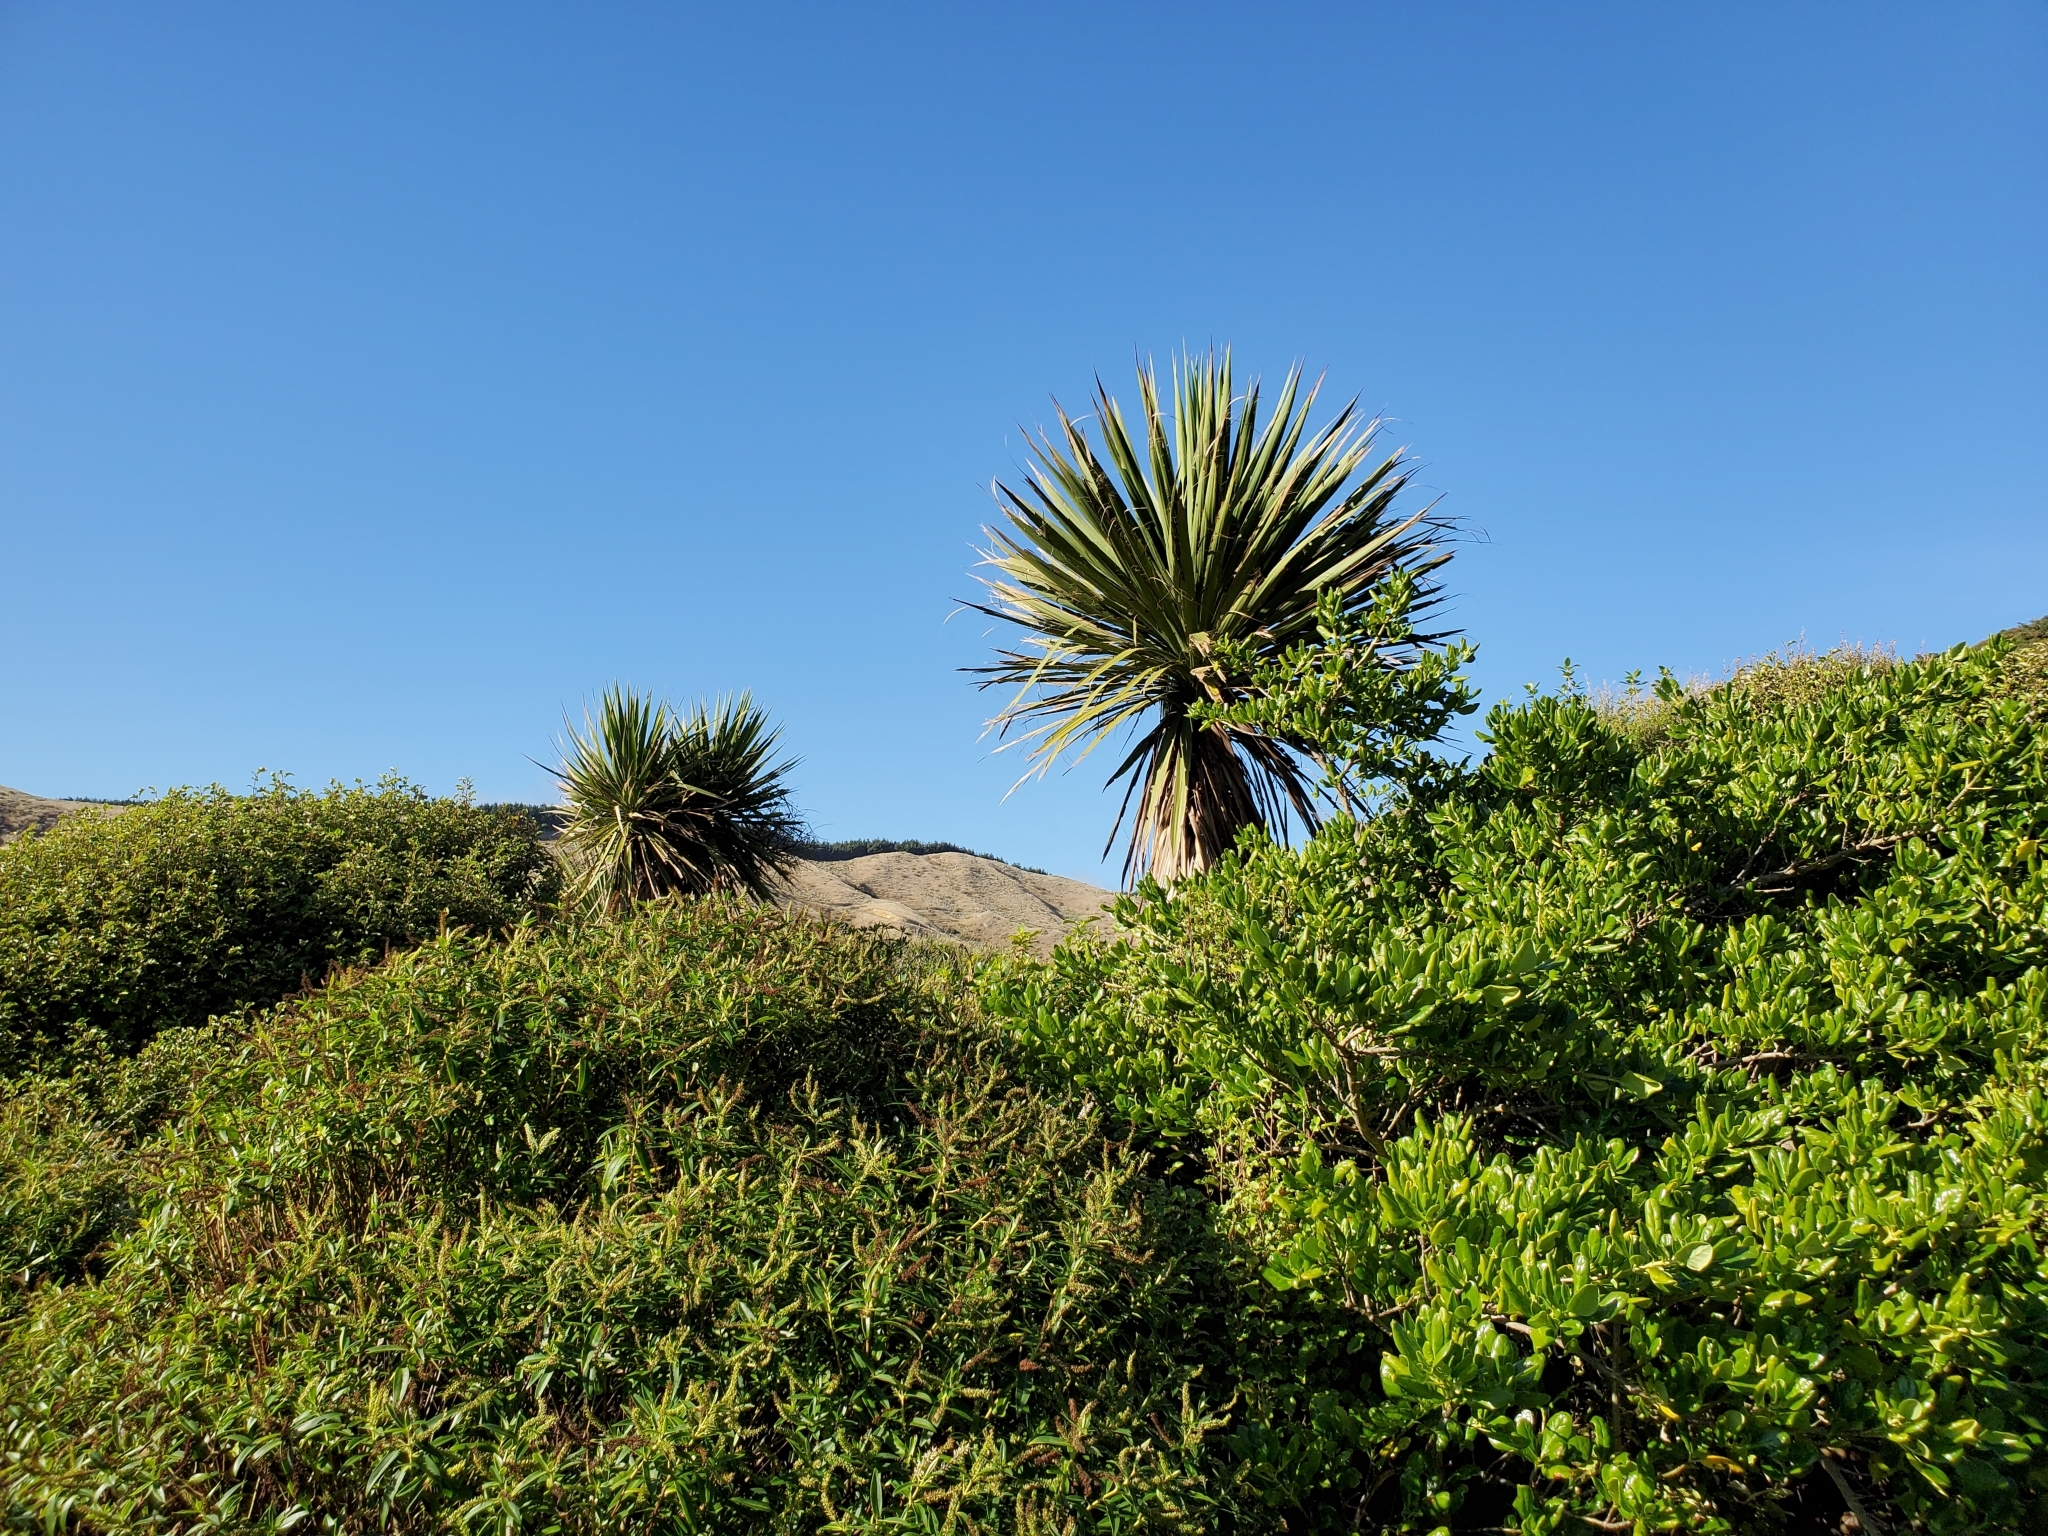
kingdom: Plantae
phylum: Tracheophyta
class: Liliopsida
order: Asparagales
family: Asparagaceae
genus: Cordyline
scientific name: Cordyline australis
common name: Cabbage-palm
